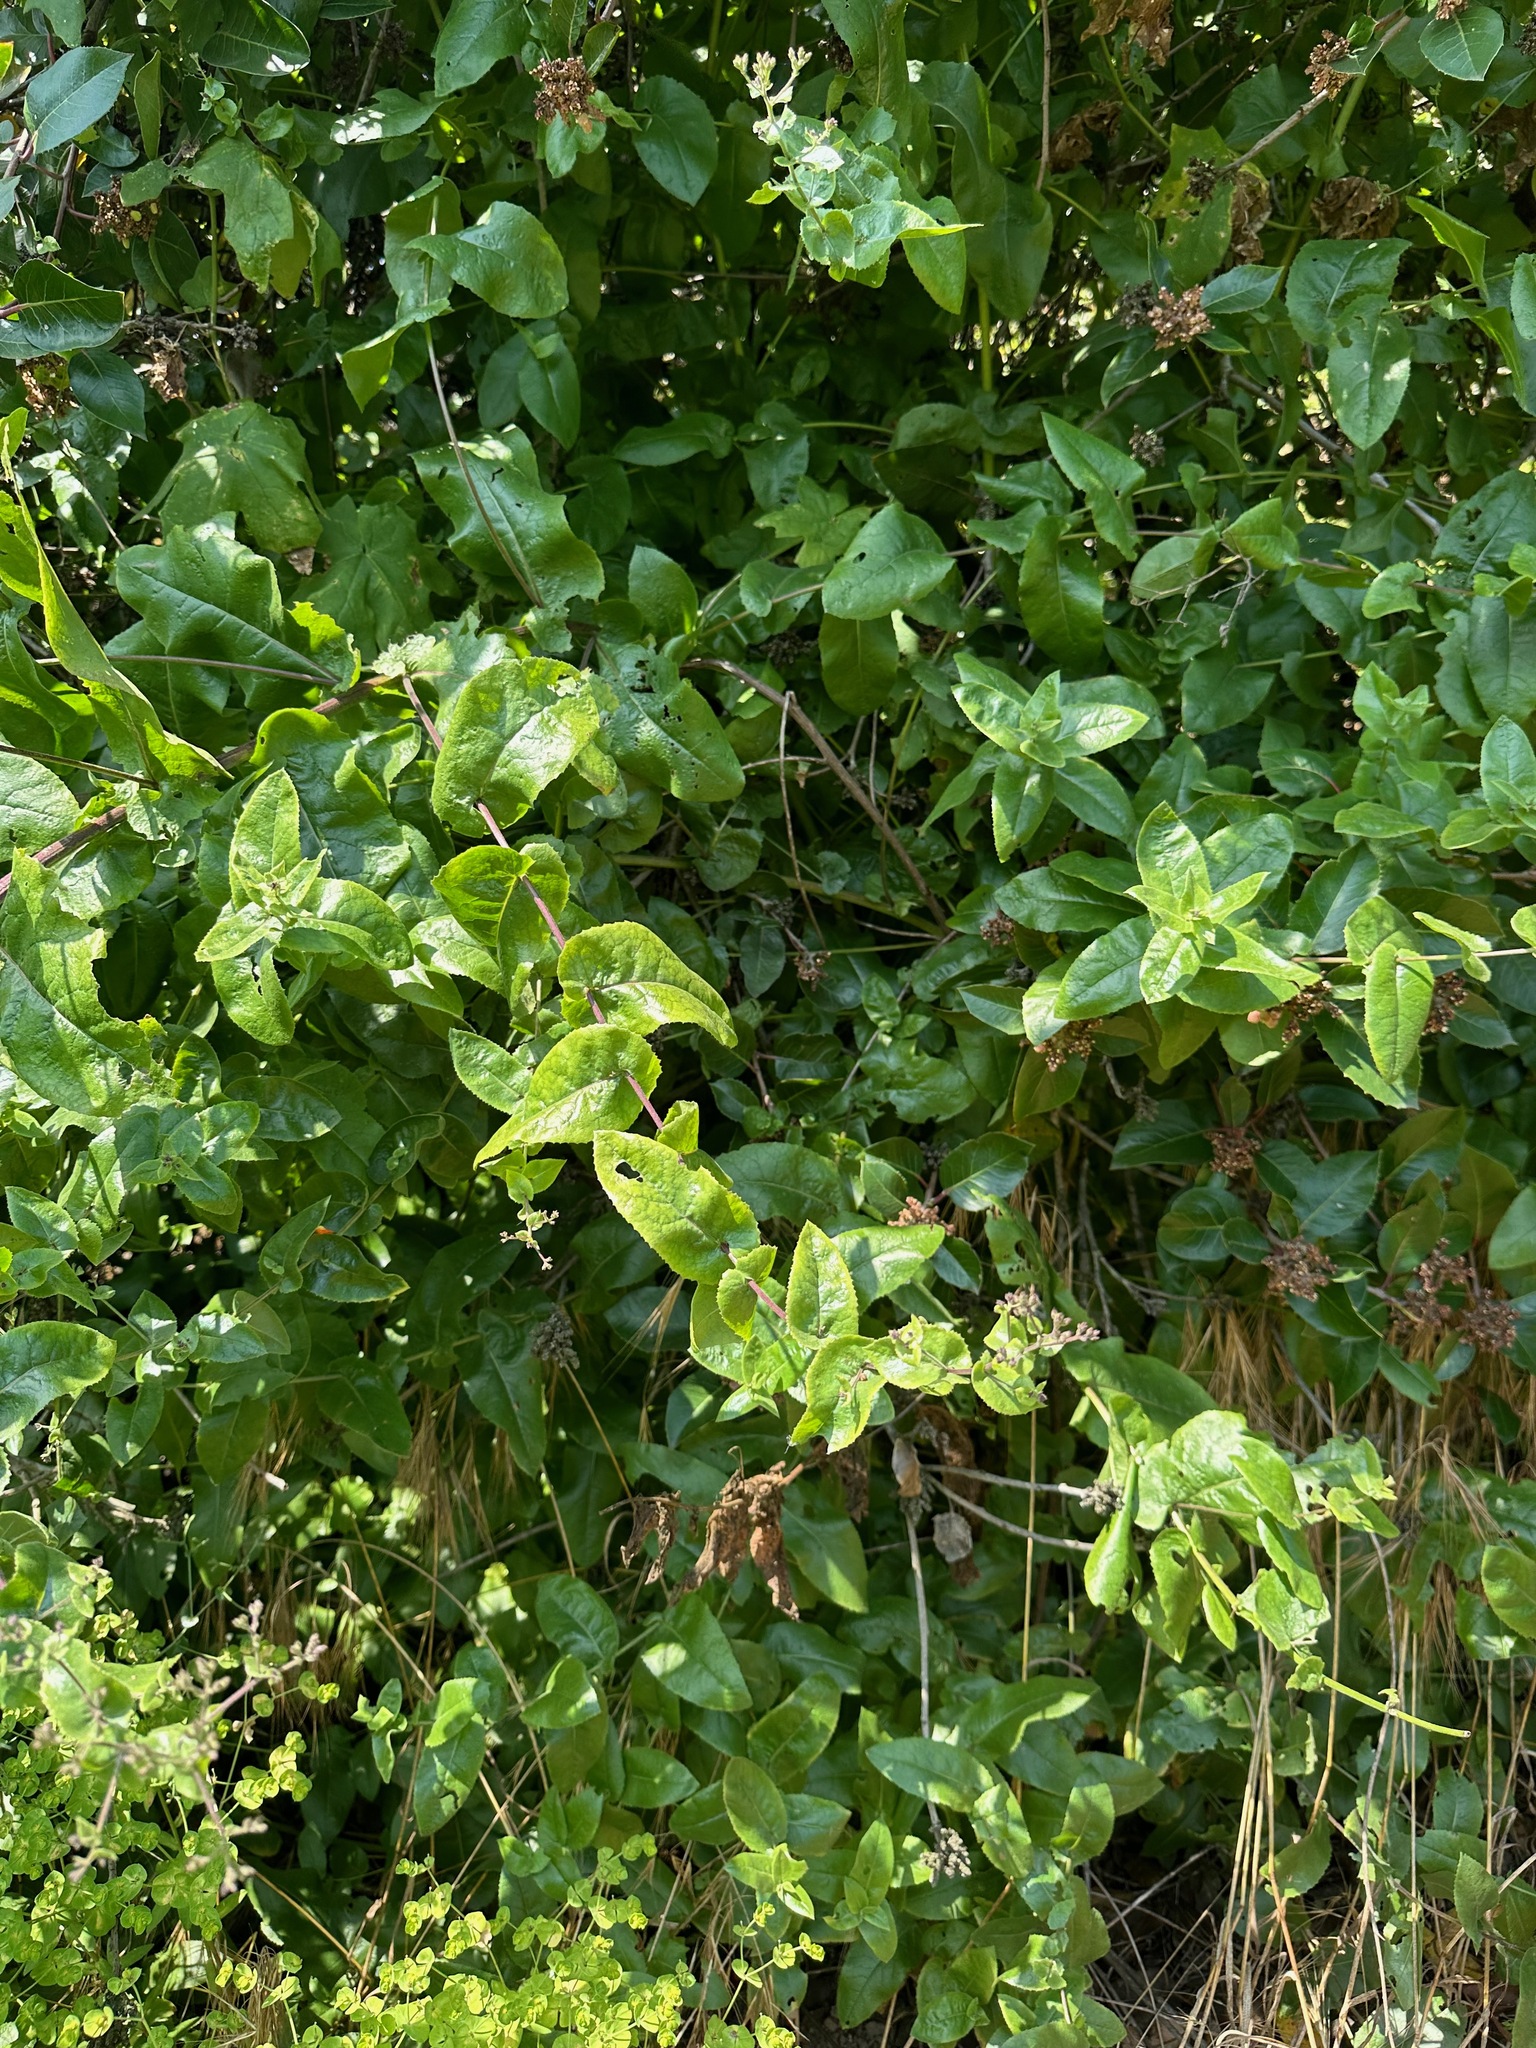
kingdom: Plantae
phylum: Tracheophyta
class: Magnoliopsida
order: Asterales
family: Asteraceae
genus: Acourtia
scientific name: Acourtia microcephala
